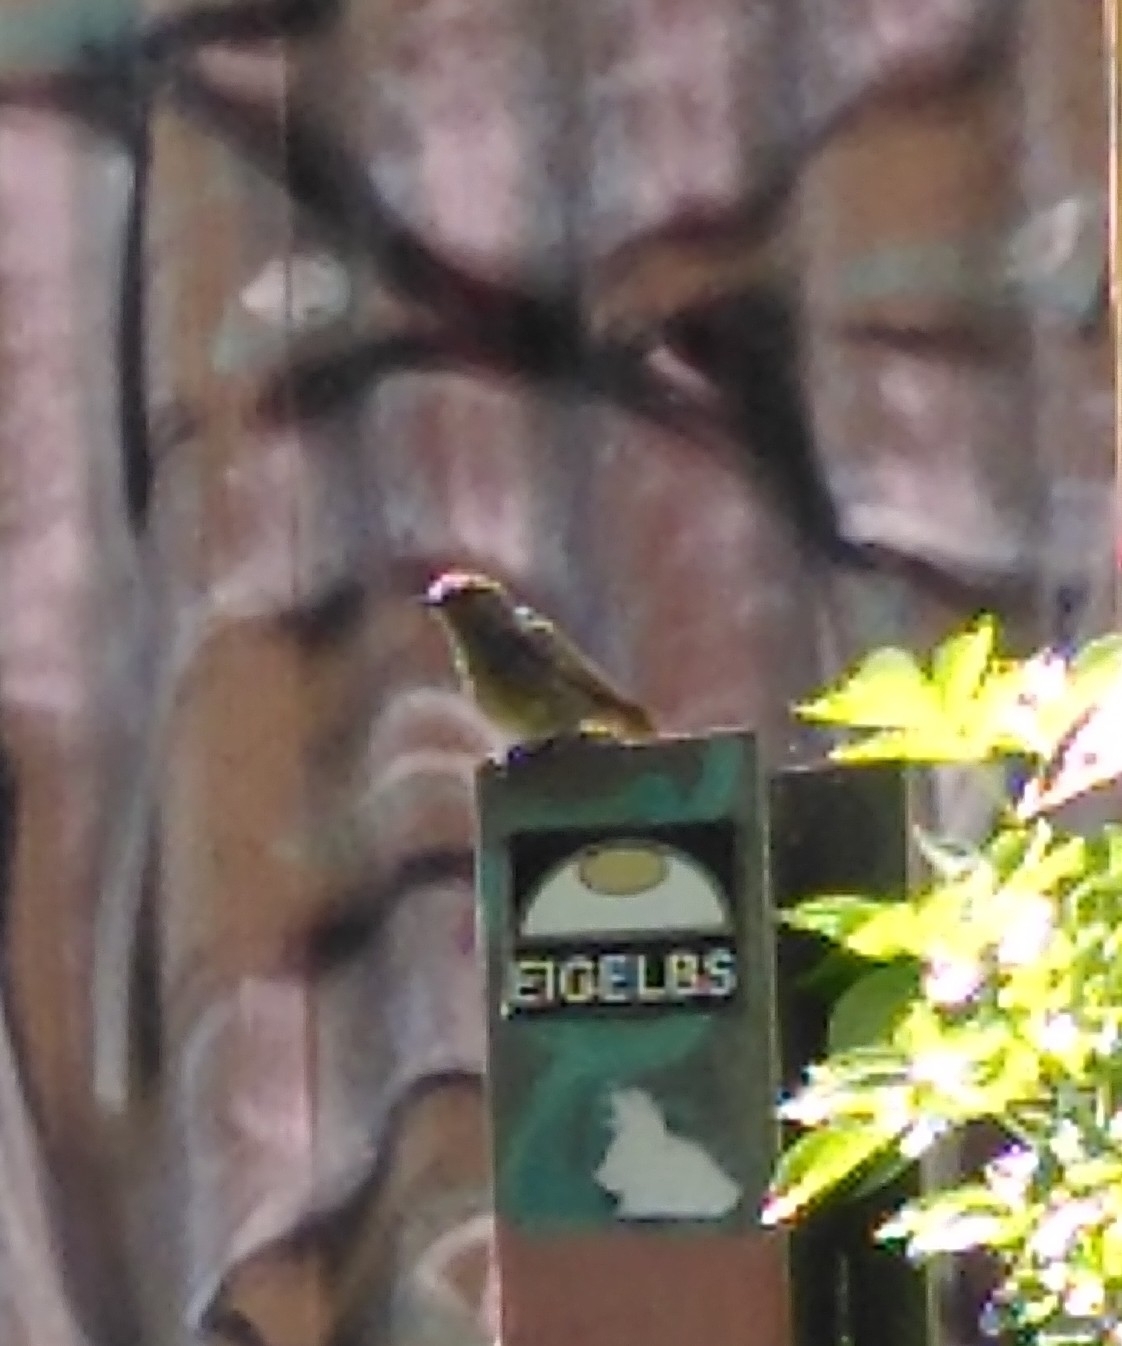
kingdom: Animalia
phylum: Chordata
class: Aves
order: Passeriformes
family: Muscicapidae
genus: Phoenicurus
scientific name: Phoenicurus ochruros
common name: Black redstart
